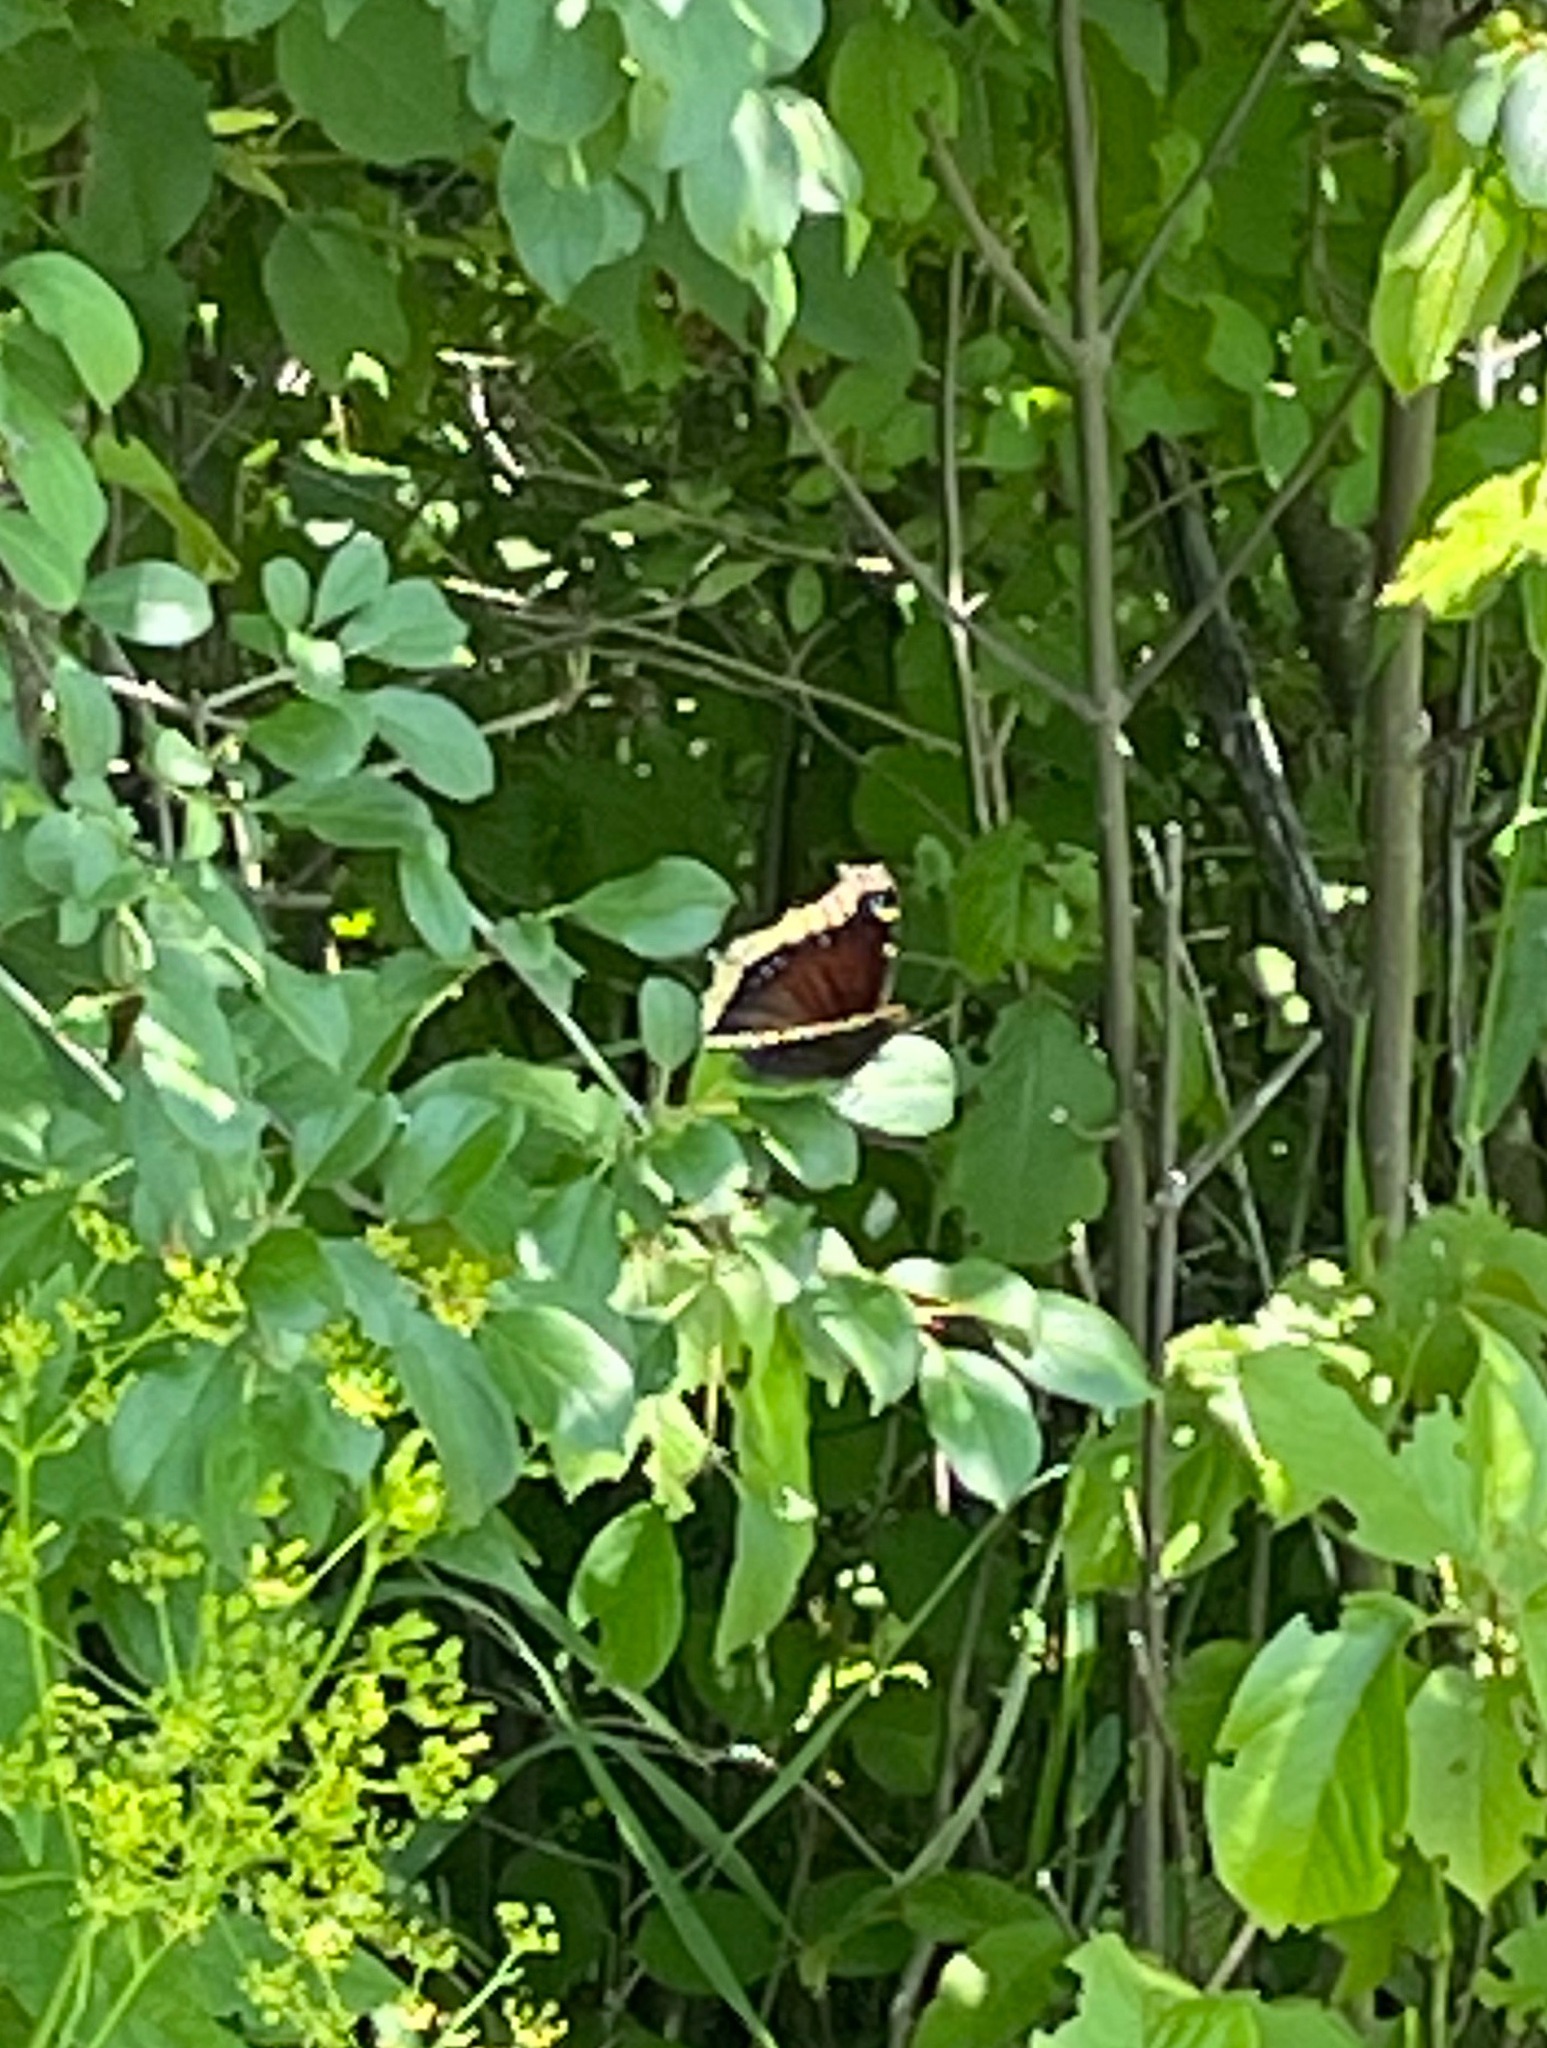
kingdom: Animalia
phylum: Arthropoda
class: Insecta
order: Lepidoptera
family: Nymphalidae
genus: Nymphalis
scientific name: Nymphalis antiopa
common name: Camberwell beauty
